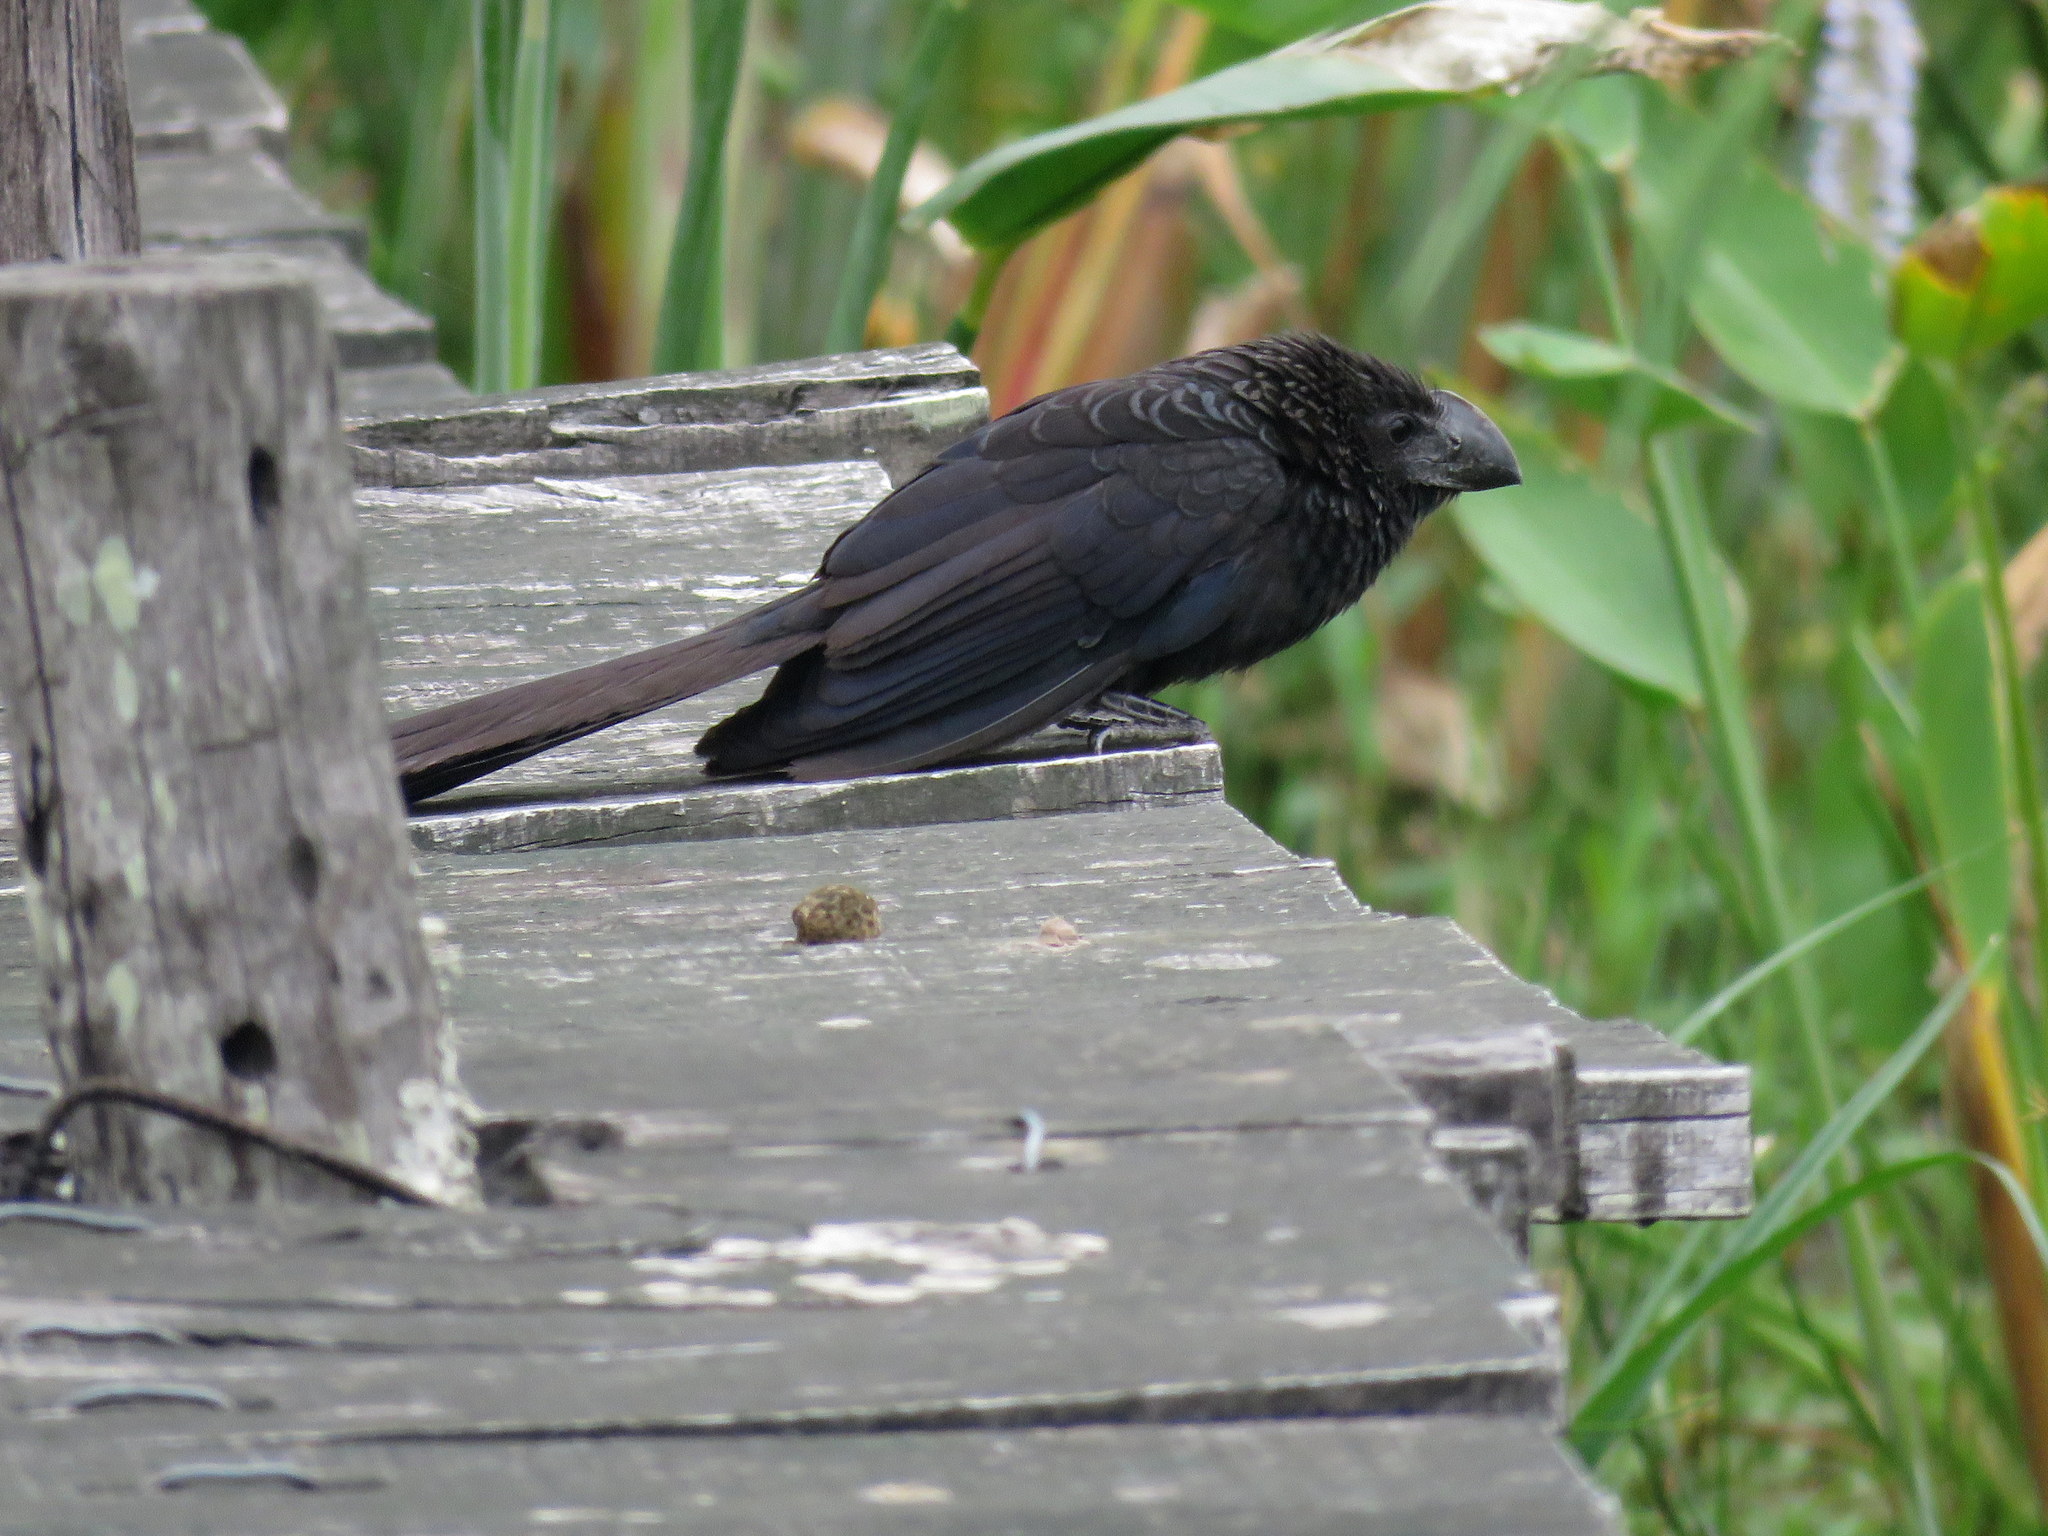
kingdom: Animalia
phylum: Chordata
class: Aves
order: Cuculiformes
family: Cuculidae
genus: Crotophaga
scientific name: Crotophaga ani
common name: Smooth-billed ani
